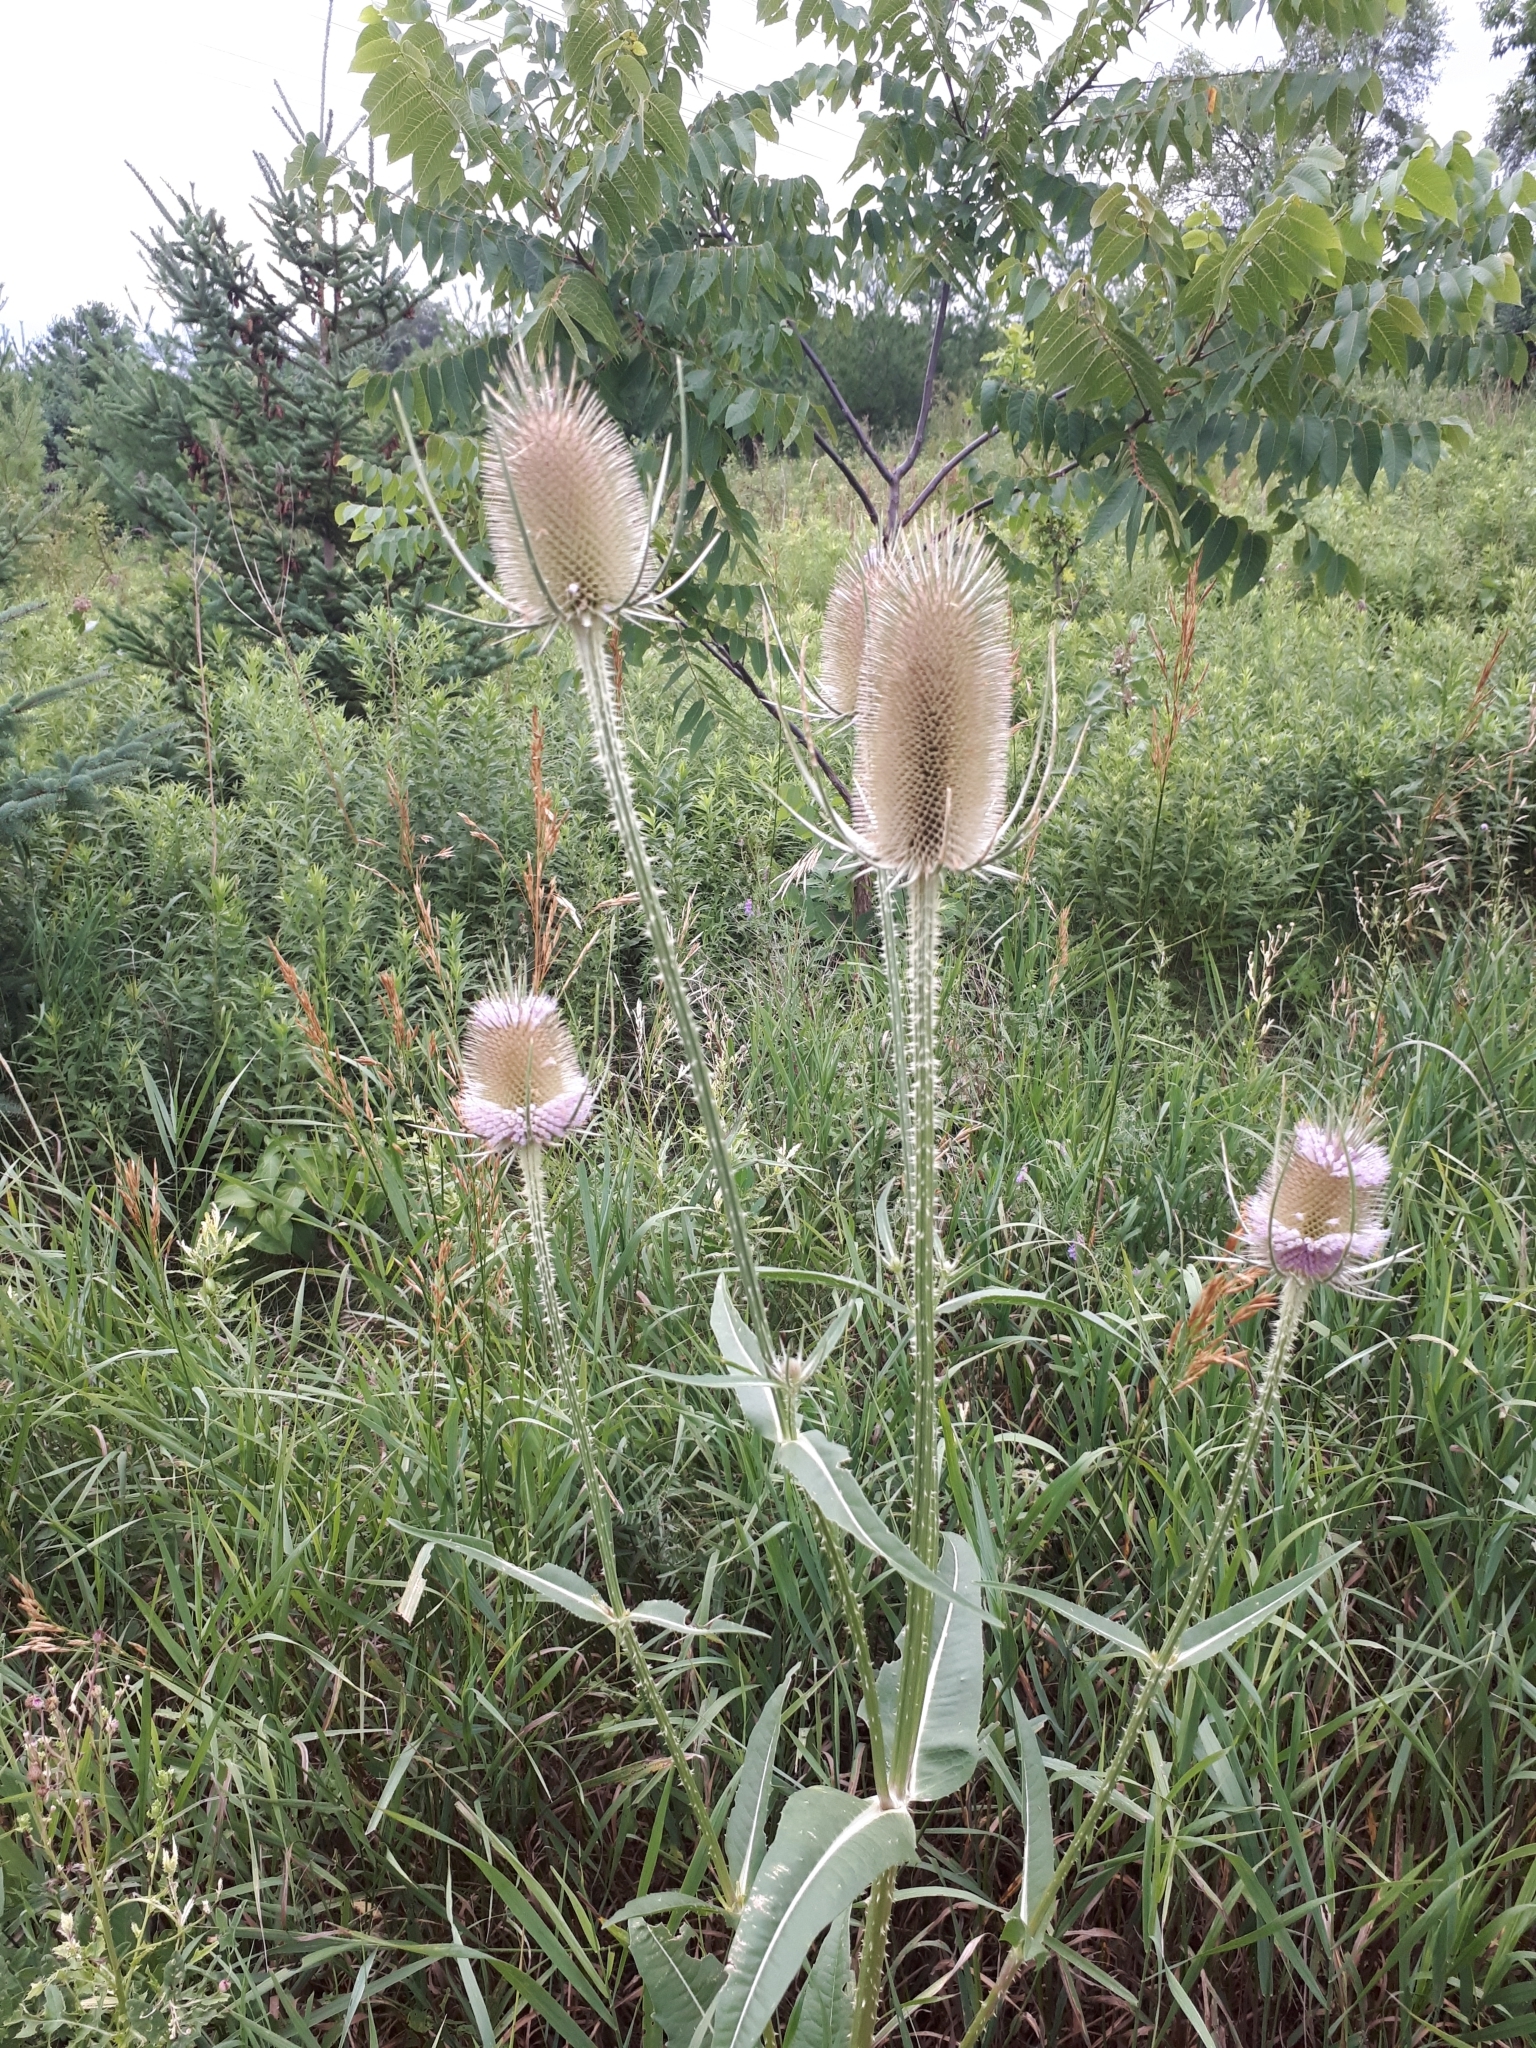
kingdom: Plantae
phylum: Tracheophyta
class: Magnoliopsida
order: Dipsacales
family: Caprifoliaceae
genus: Dipsacus
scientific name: Dipsacus fullonum
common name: Teasel
